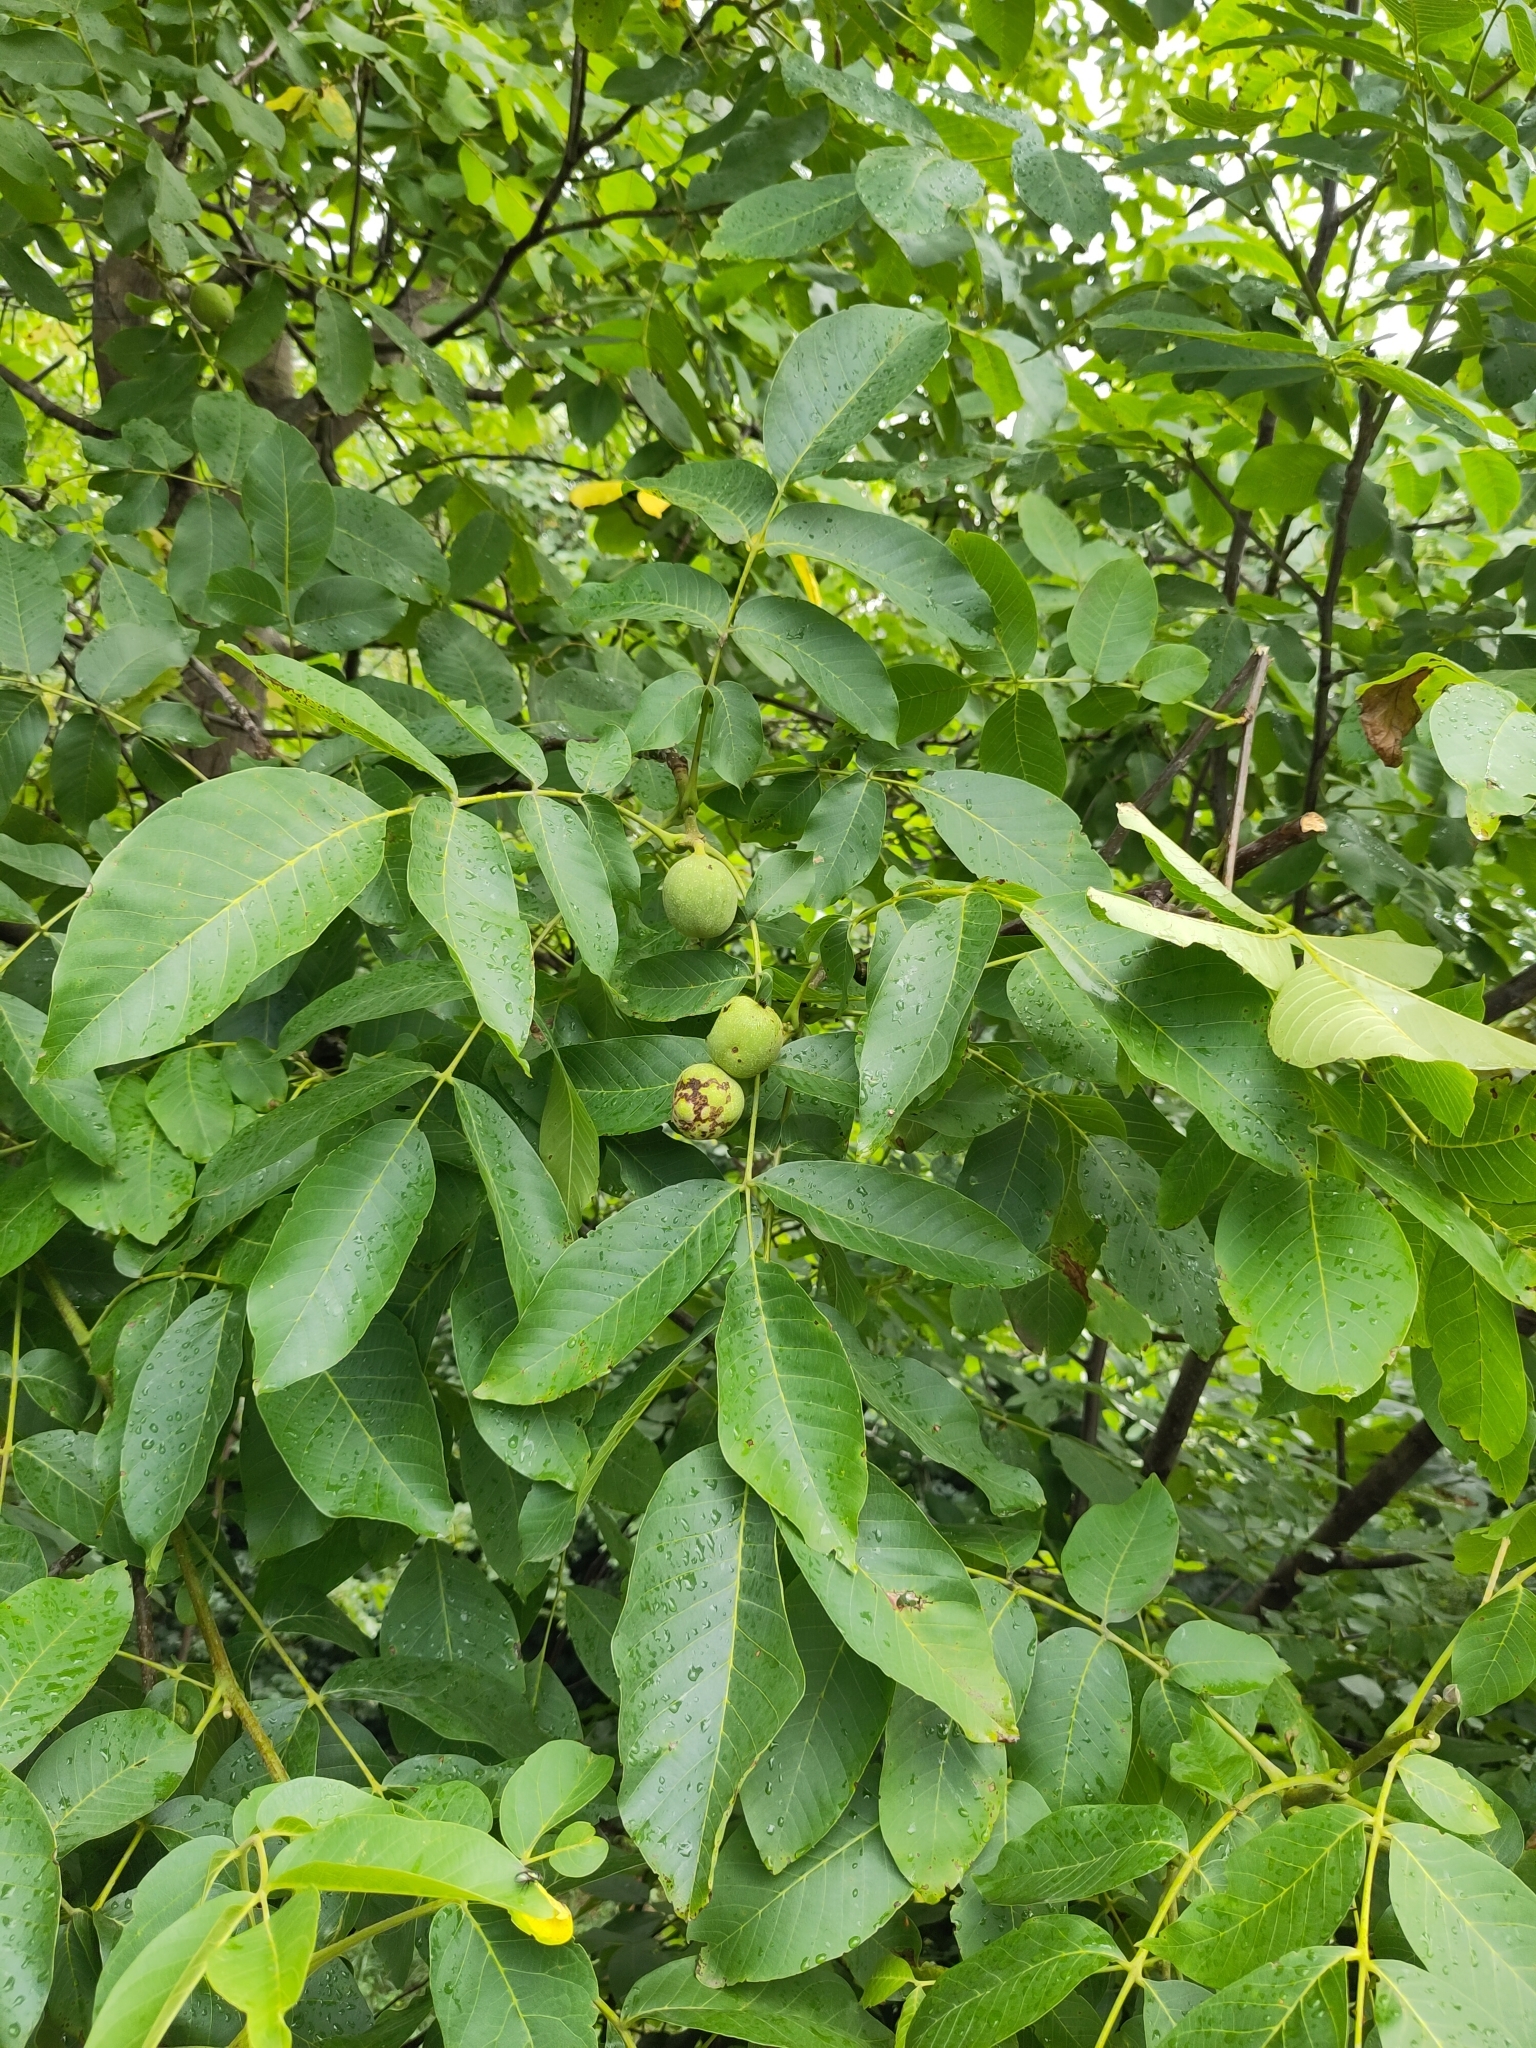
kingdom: Plantae
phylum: Tracheophyta
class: Magnoliopsida
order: Fagales
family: Juglandaceae
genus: Juglans
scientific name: Juglans regia
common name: Walnut
